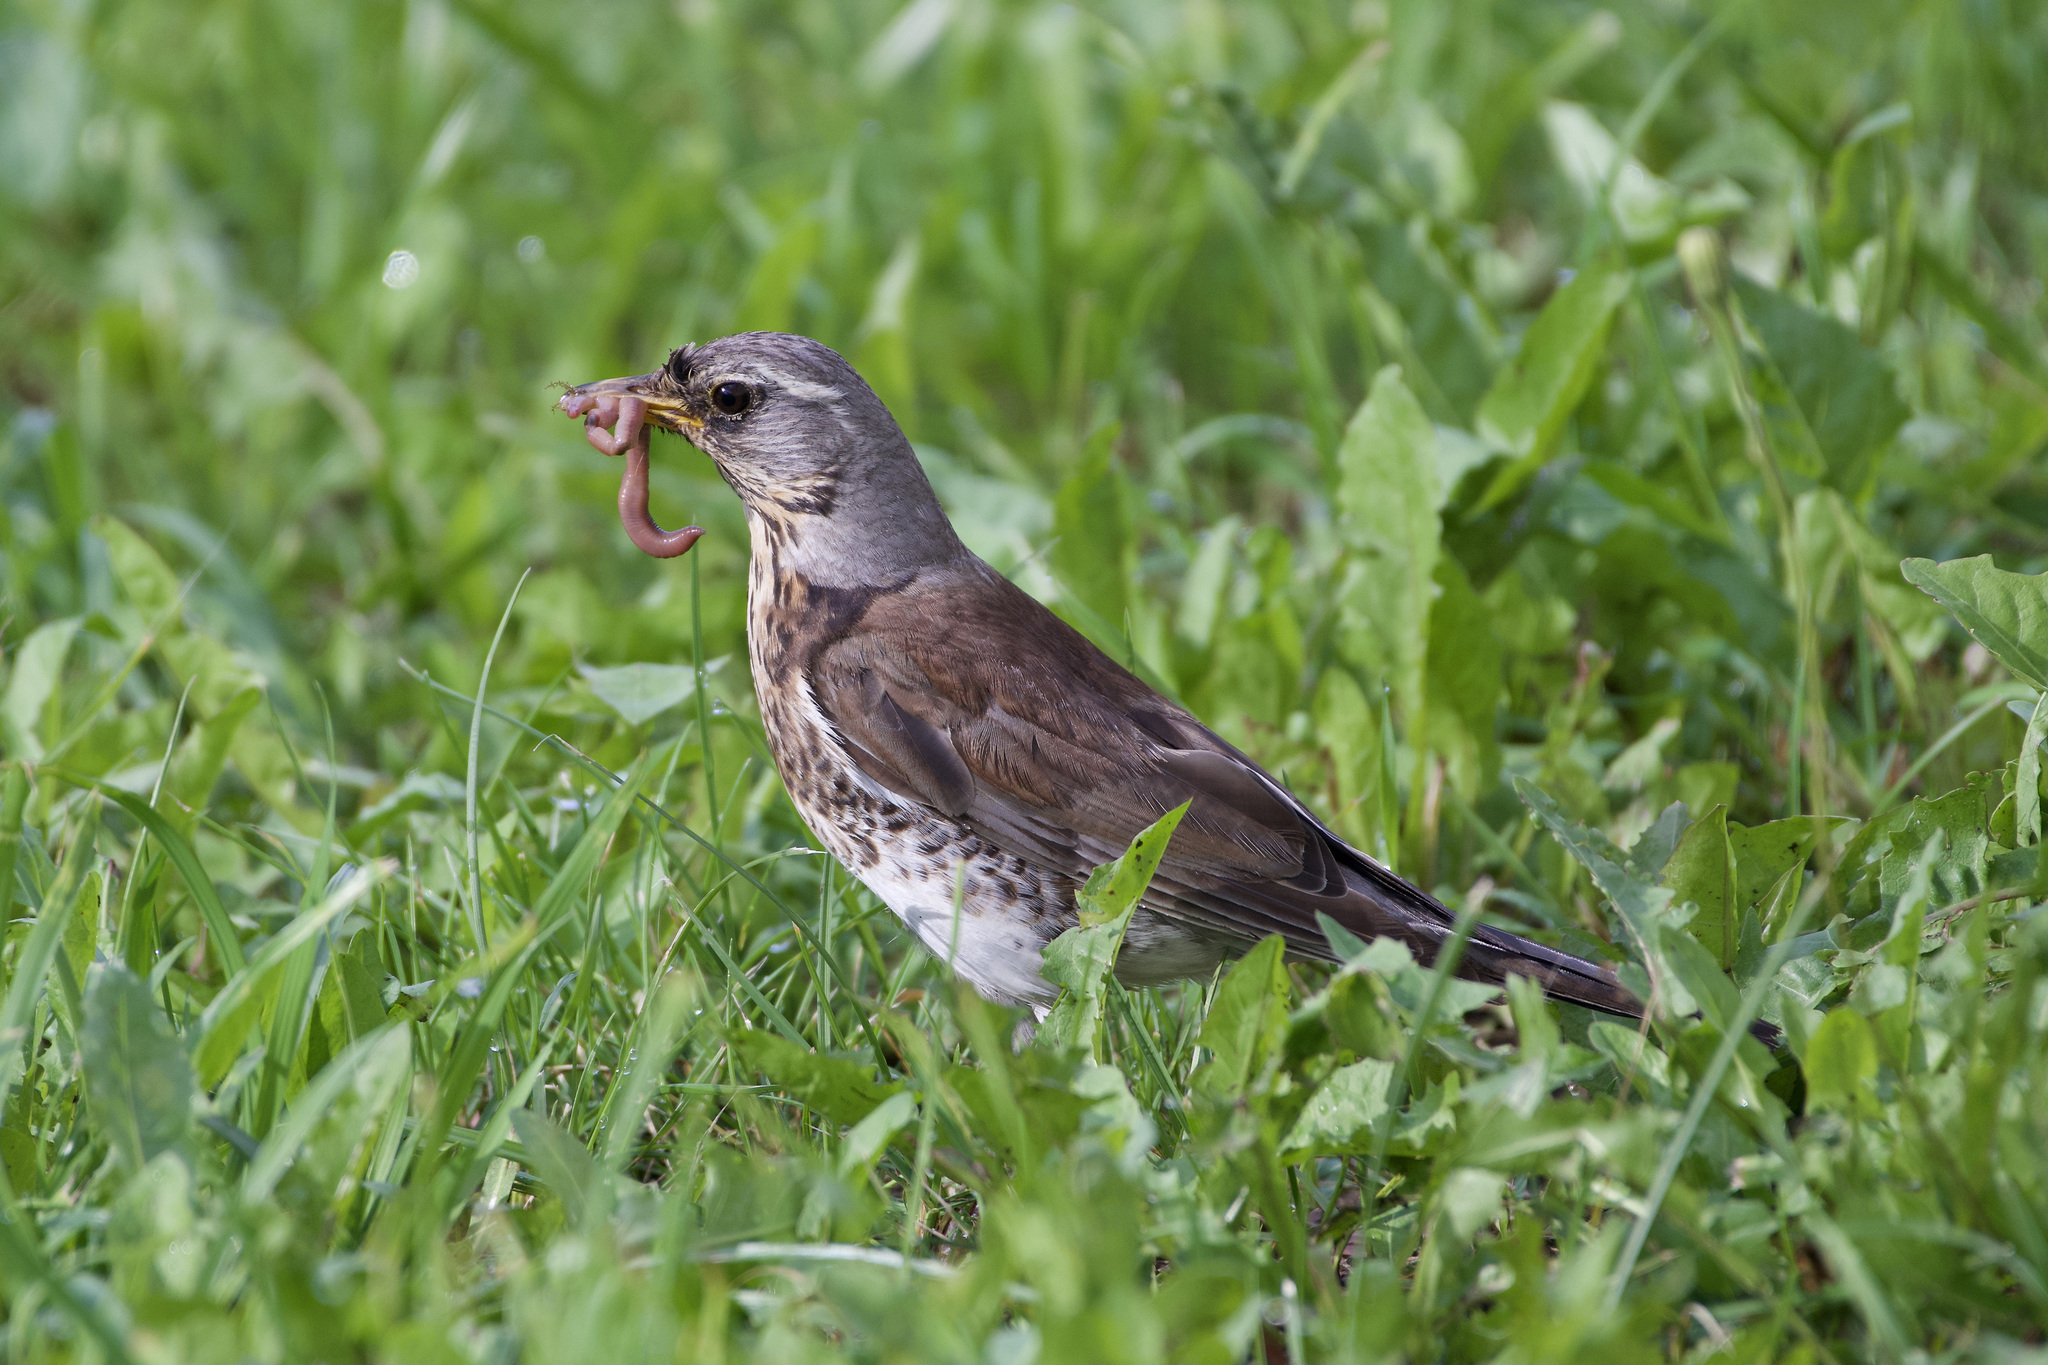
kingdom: Animalia
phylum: Chordata
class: Aves
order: Passeriformes
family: Turdidae
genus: Turdus
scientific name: Turdus pilaris
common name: Fieldfare
